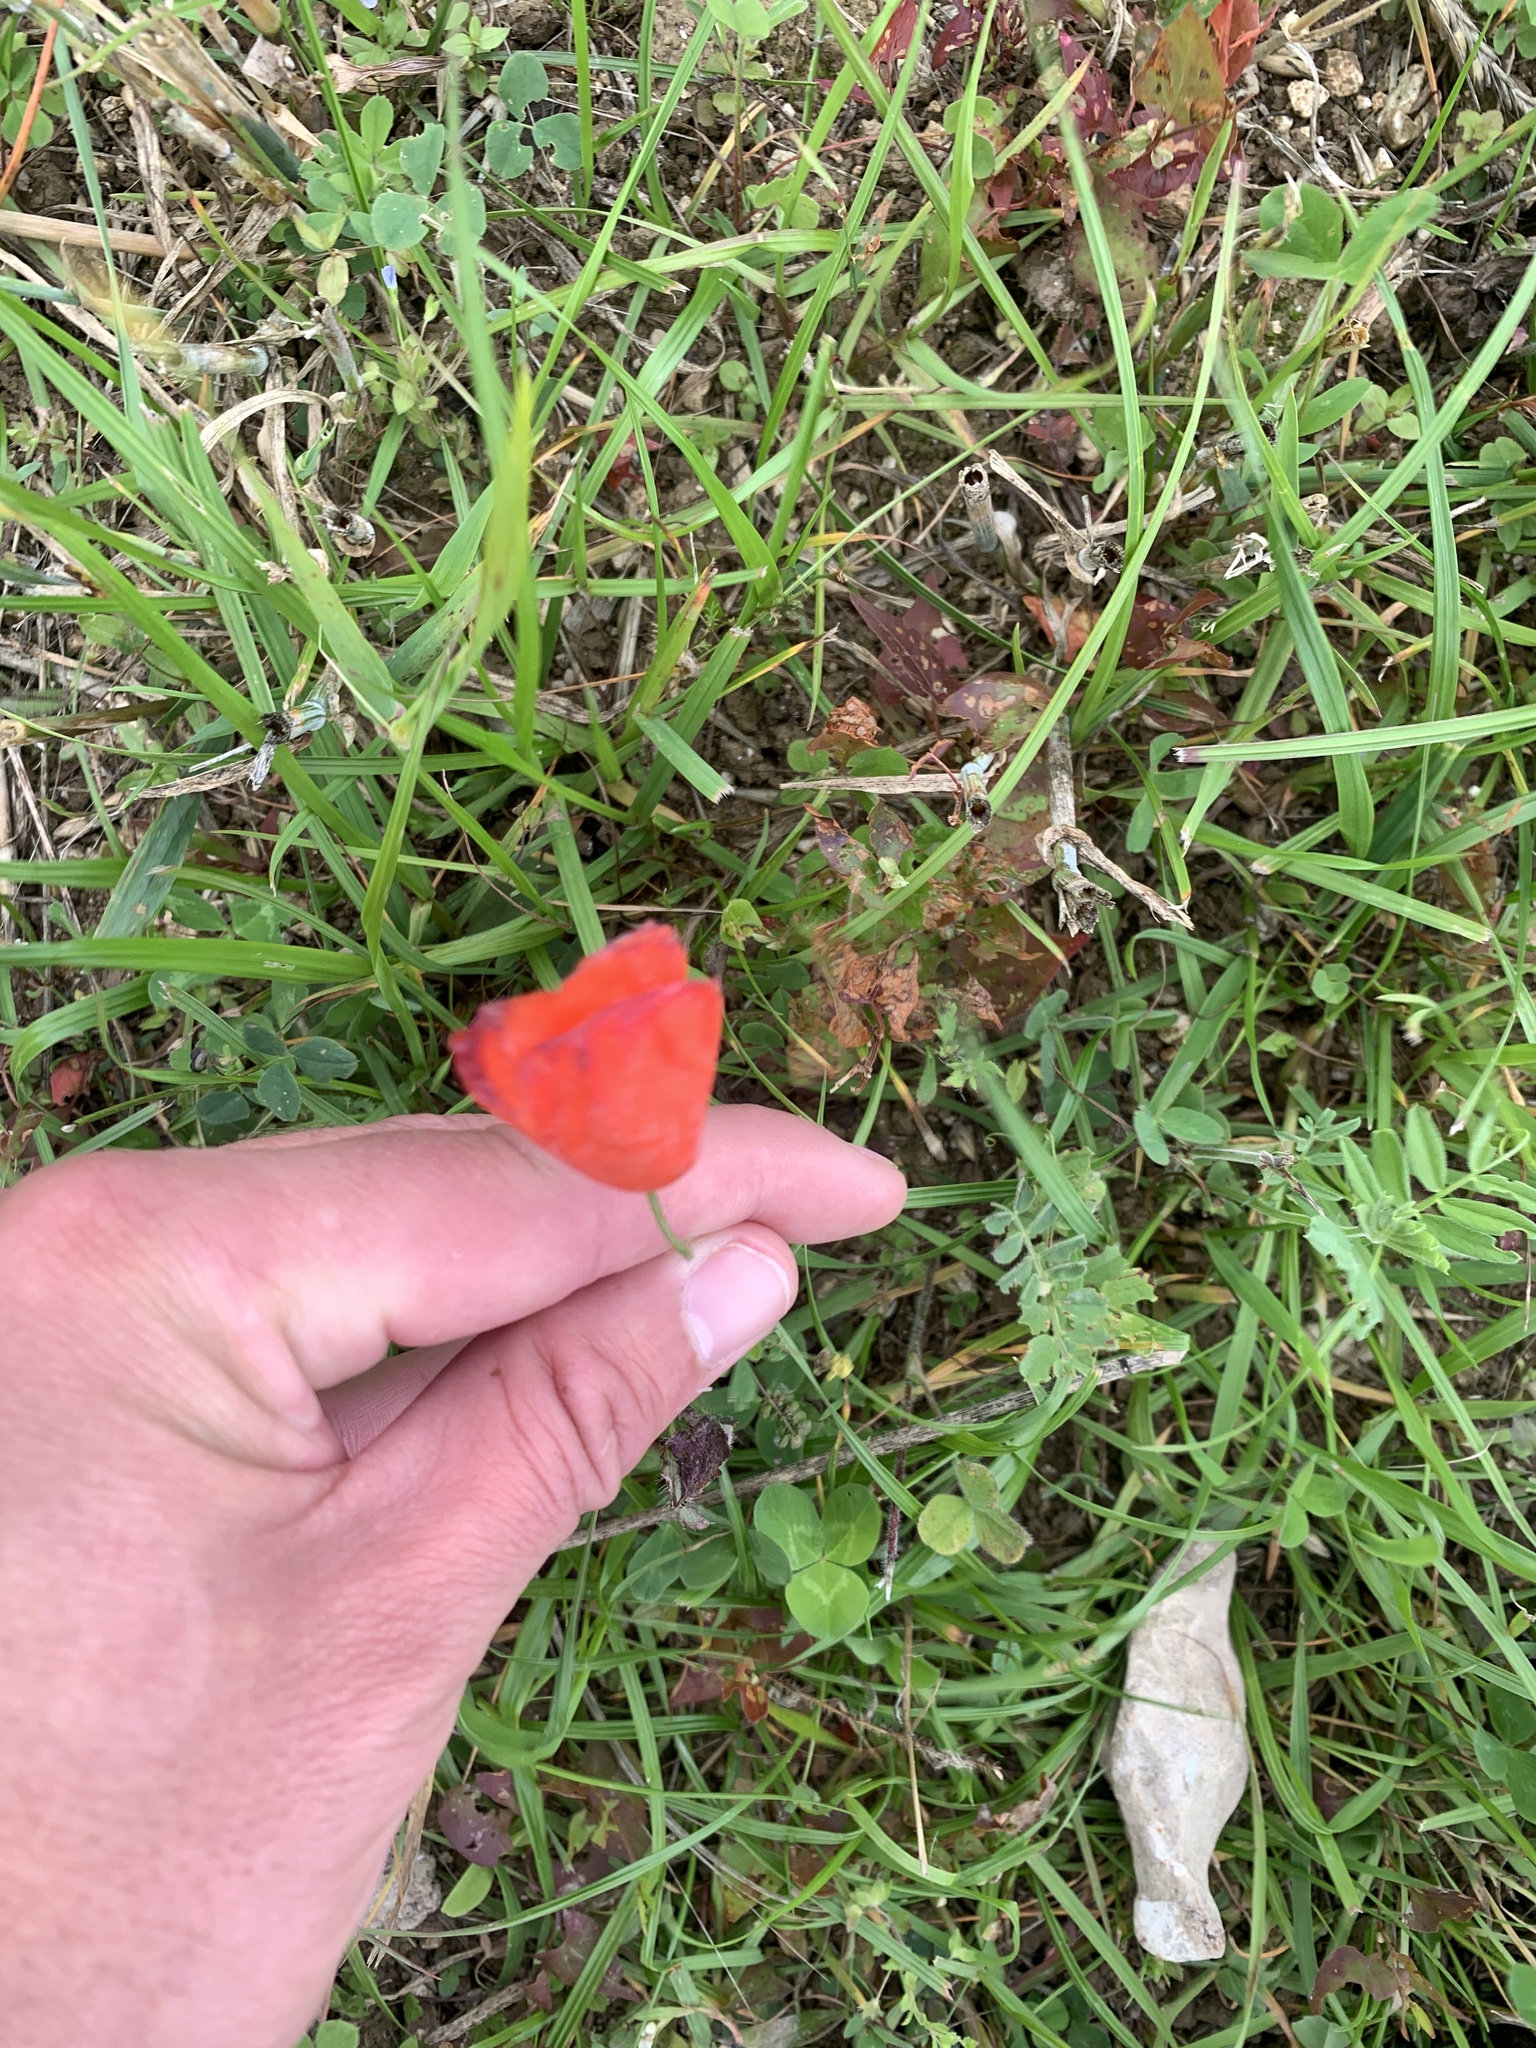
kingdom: Plantae
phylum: Tracheophyta
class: Magnoliopsida
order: Ranunculales
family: Papaveraceae
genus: Papaver
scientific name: Papaver rhoeas
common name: Corn poppy
